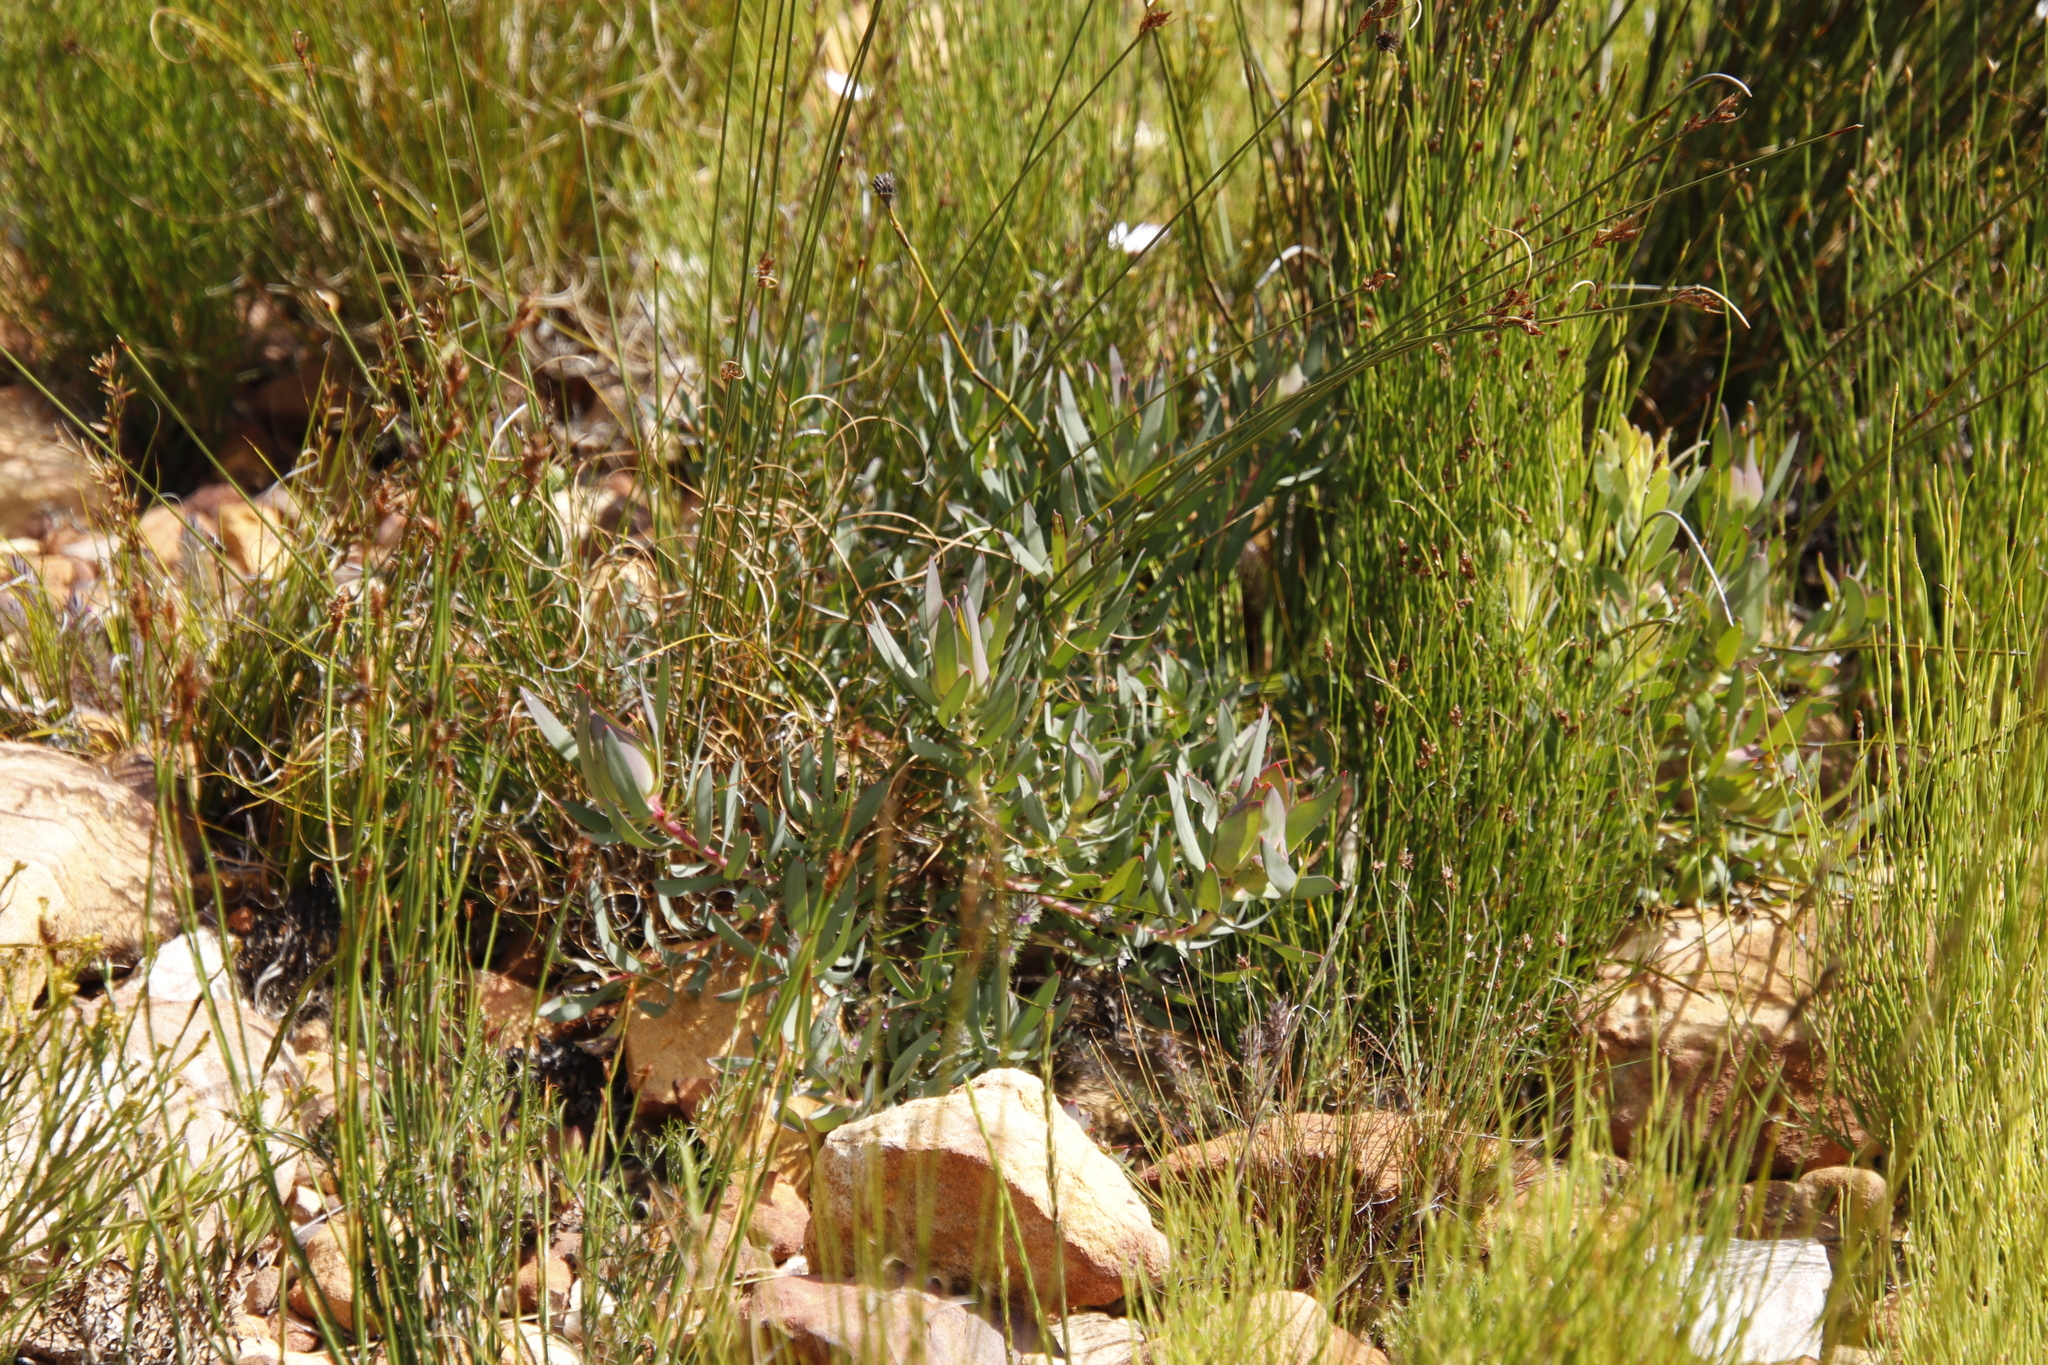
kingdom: Plantae
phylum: Tracheophyta
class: Magnoliopsida
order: Proteales
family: Proteaceae
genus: Leucadendron
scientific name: Leucadendron salignum
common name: Common sunshine conebush
